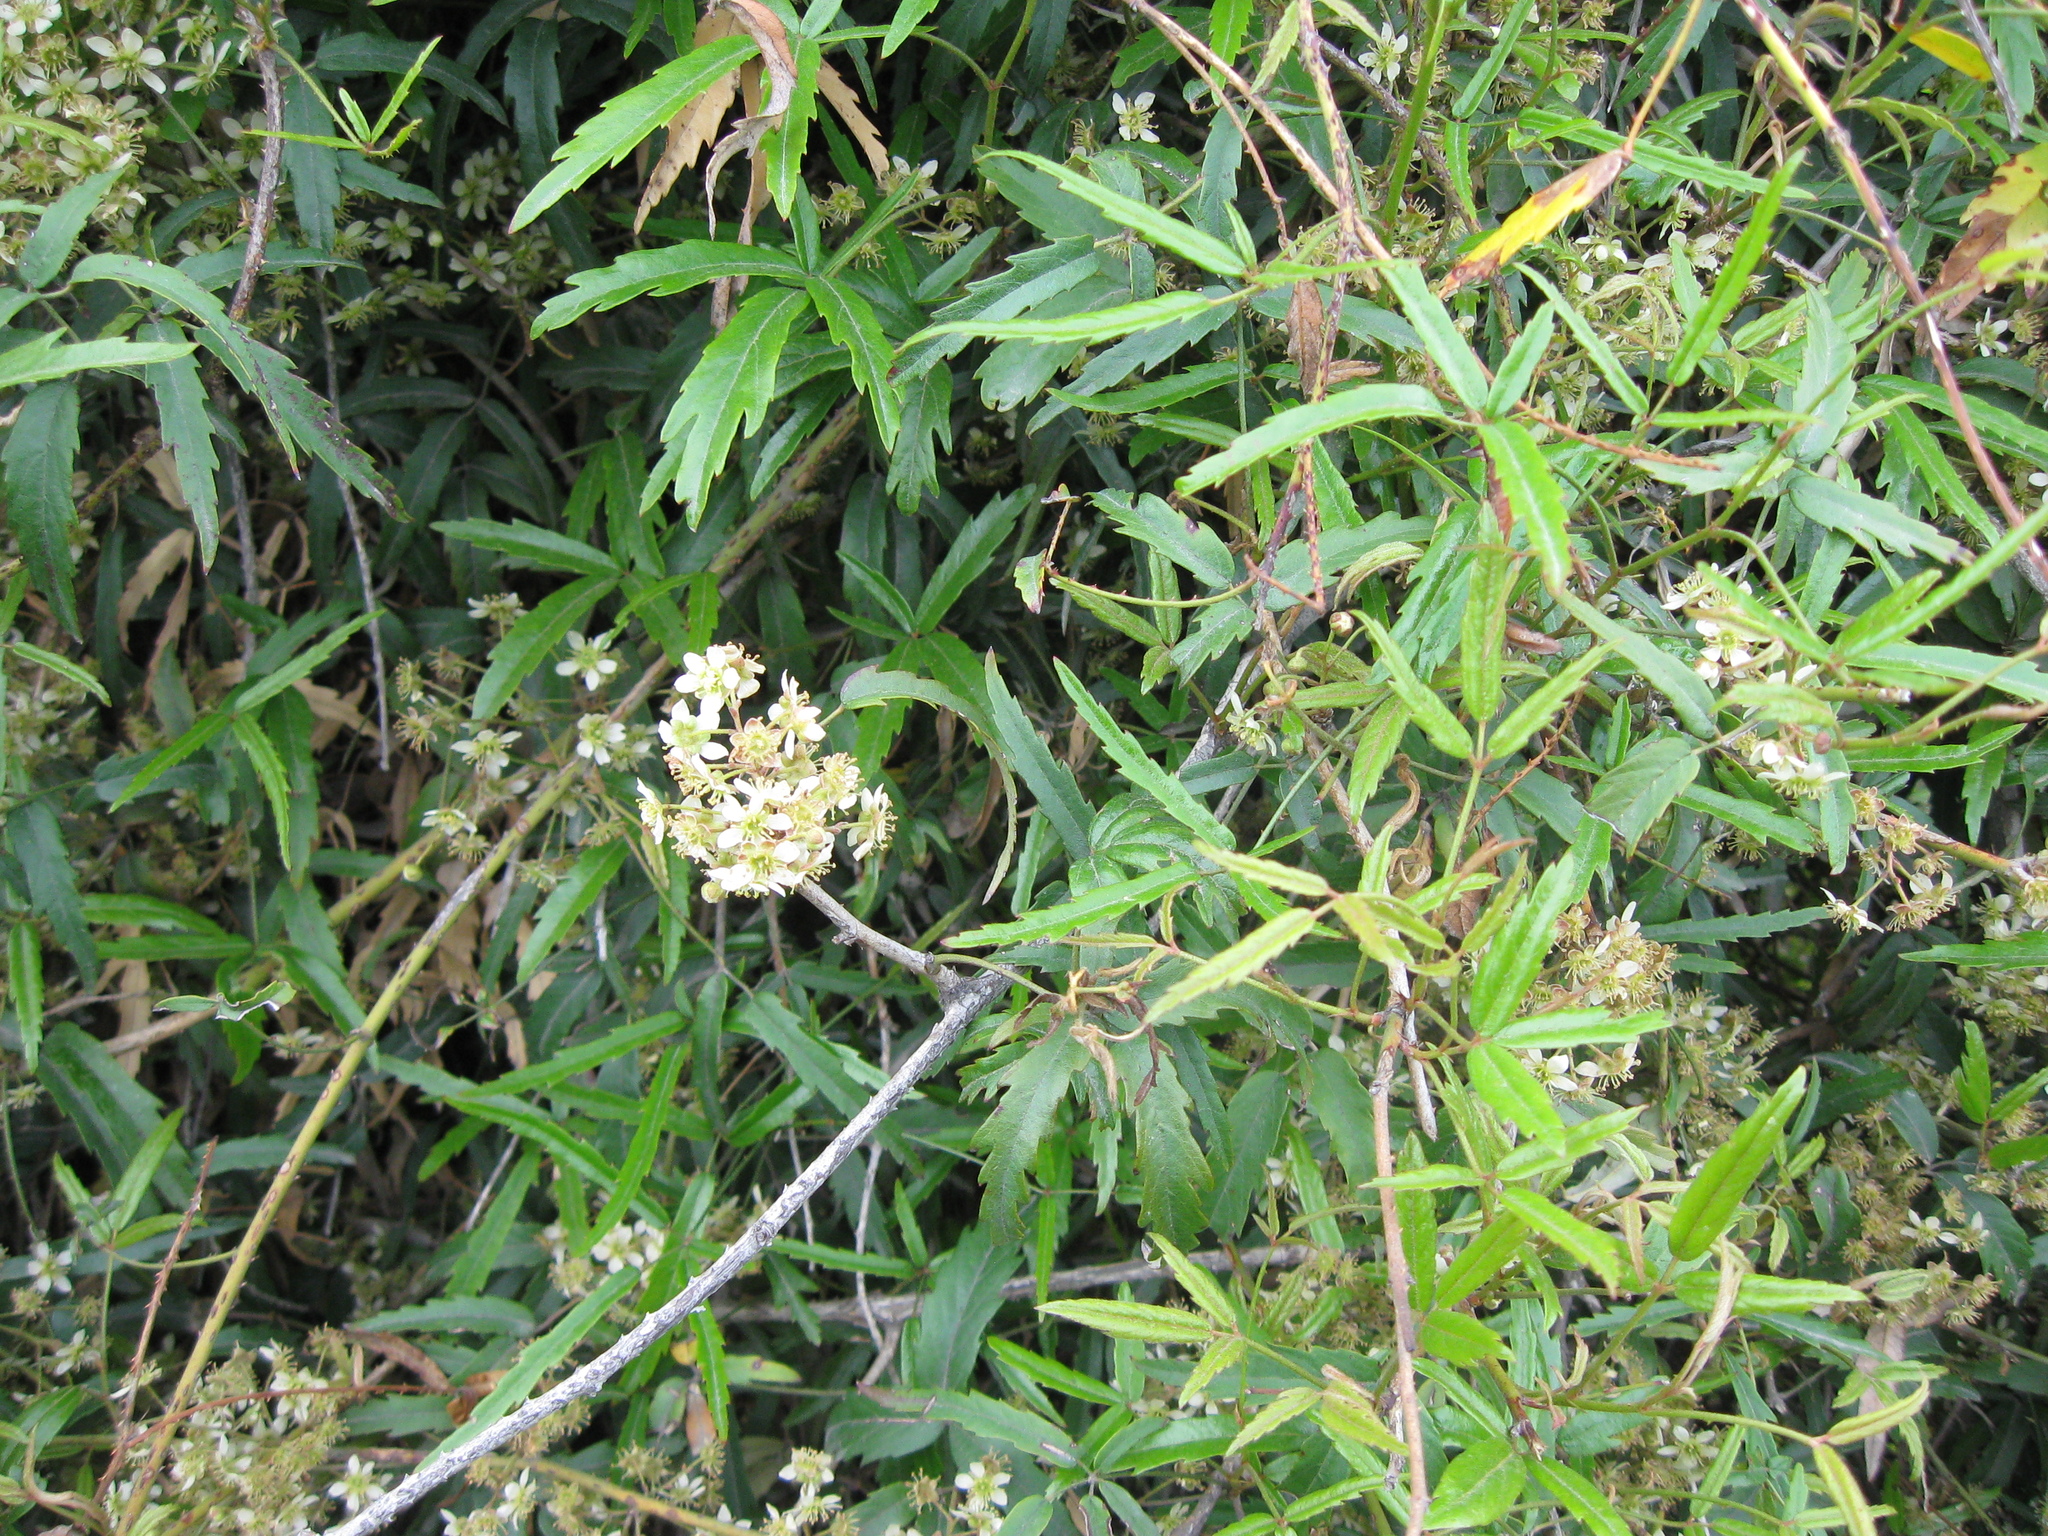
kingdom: Plantae
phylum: Tracheophyta
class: Magnoliopsida
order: Rosales
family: Rosaceae
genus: Rubus
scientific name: Rubus schmidelioides
